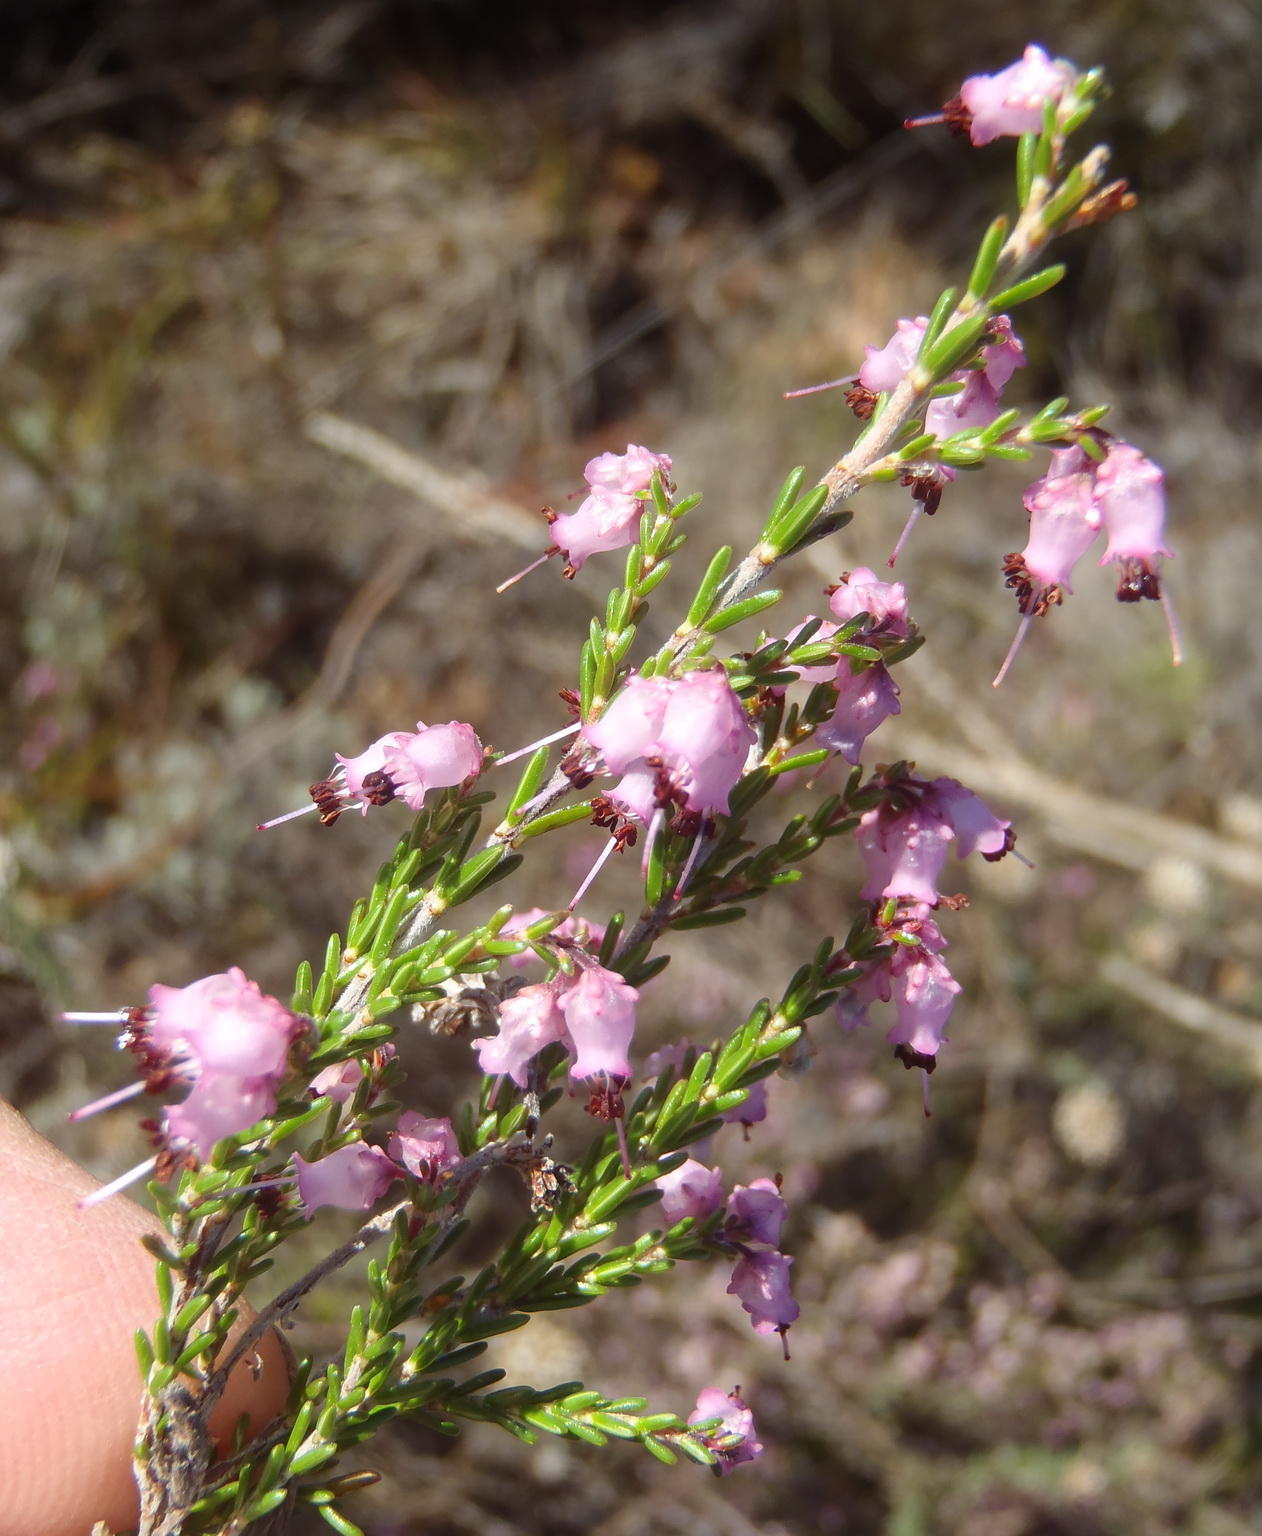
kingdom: Plantae
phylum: Tracheophyta
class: Magnoliopsida
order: Ericales
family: Ericaceae
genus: Erica
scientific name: Erica vlokii
